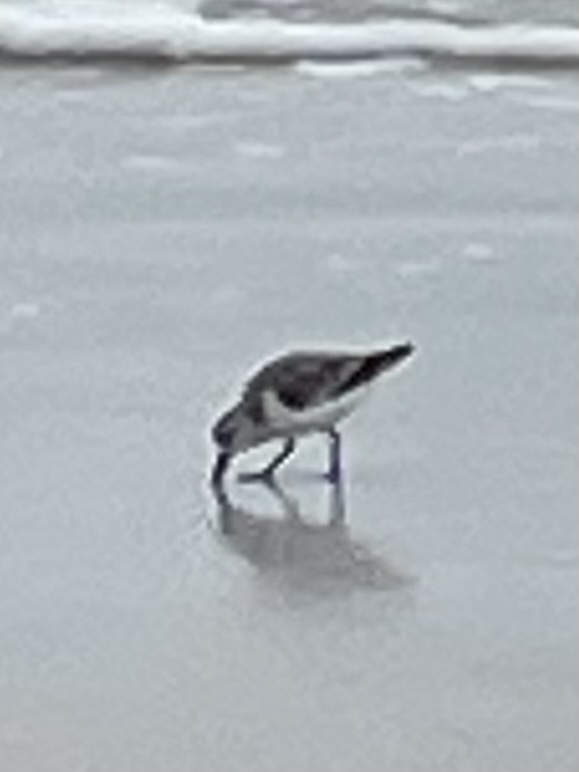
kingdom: Animalia
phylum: Chordata
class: Aves
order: Charadriiformes
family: Scolopacidae
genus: Calidris
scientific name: Calidris alba
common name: Sanderling
